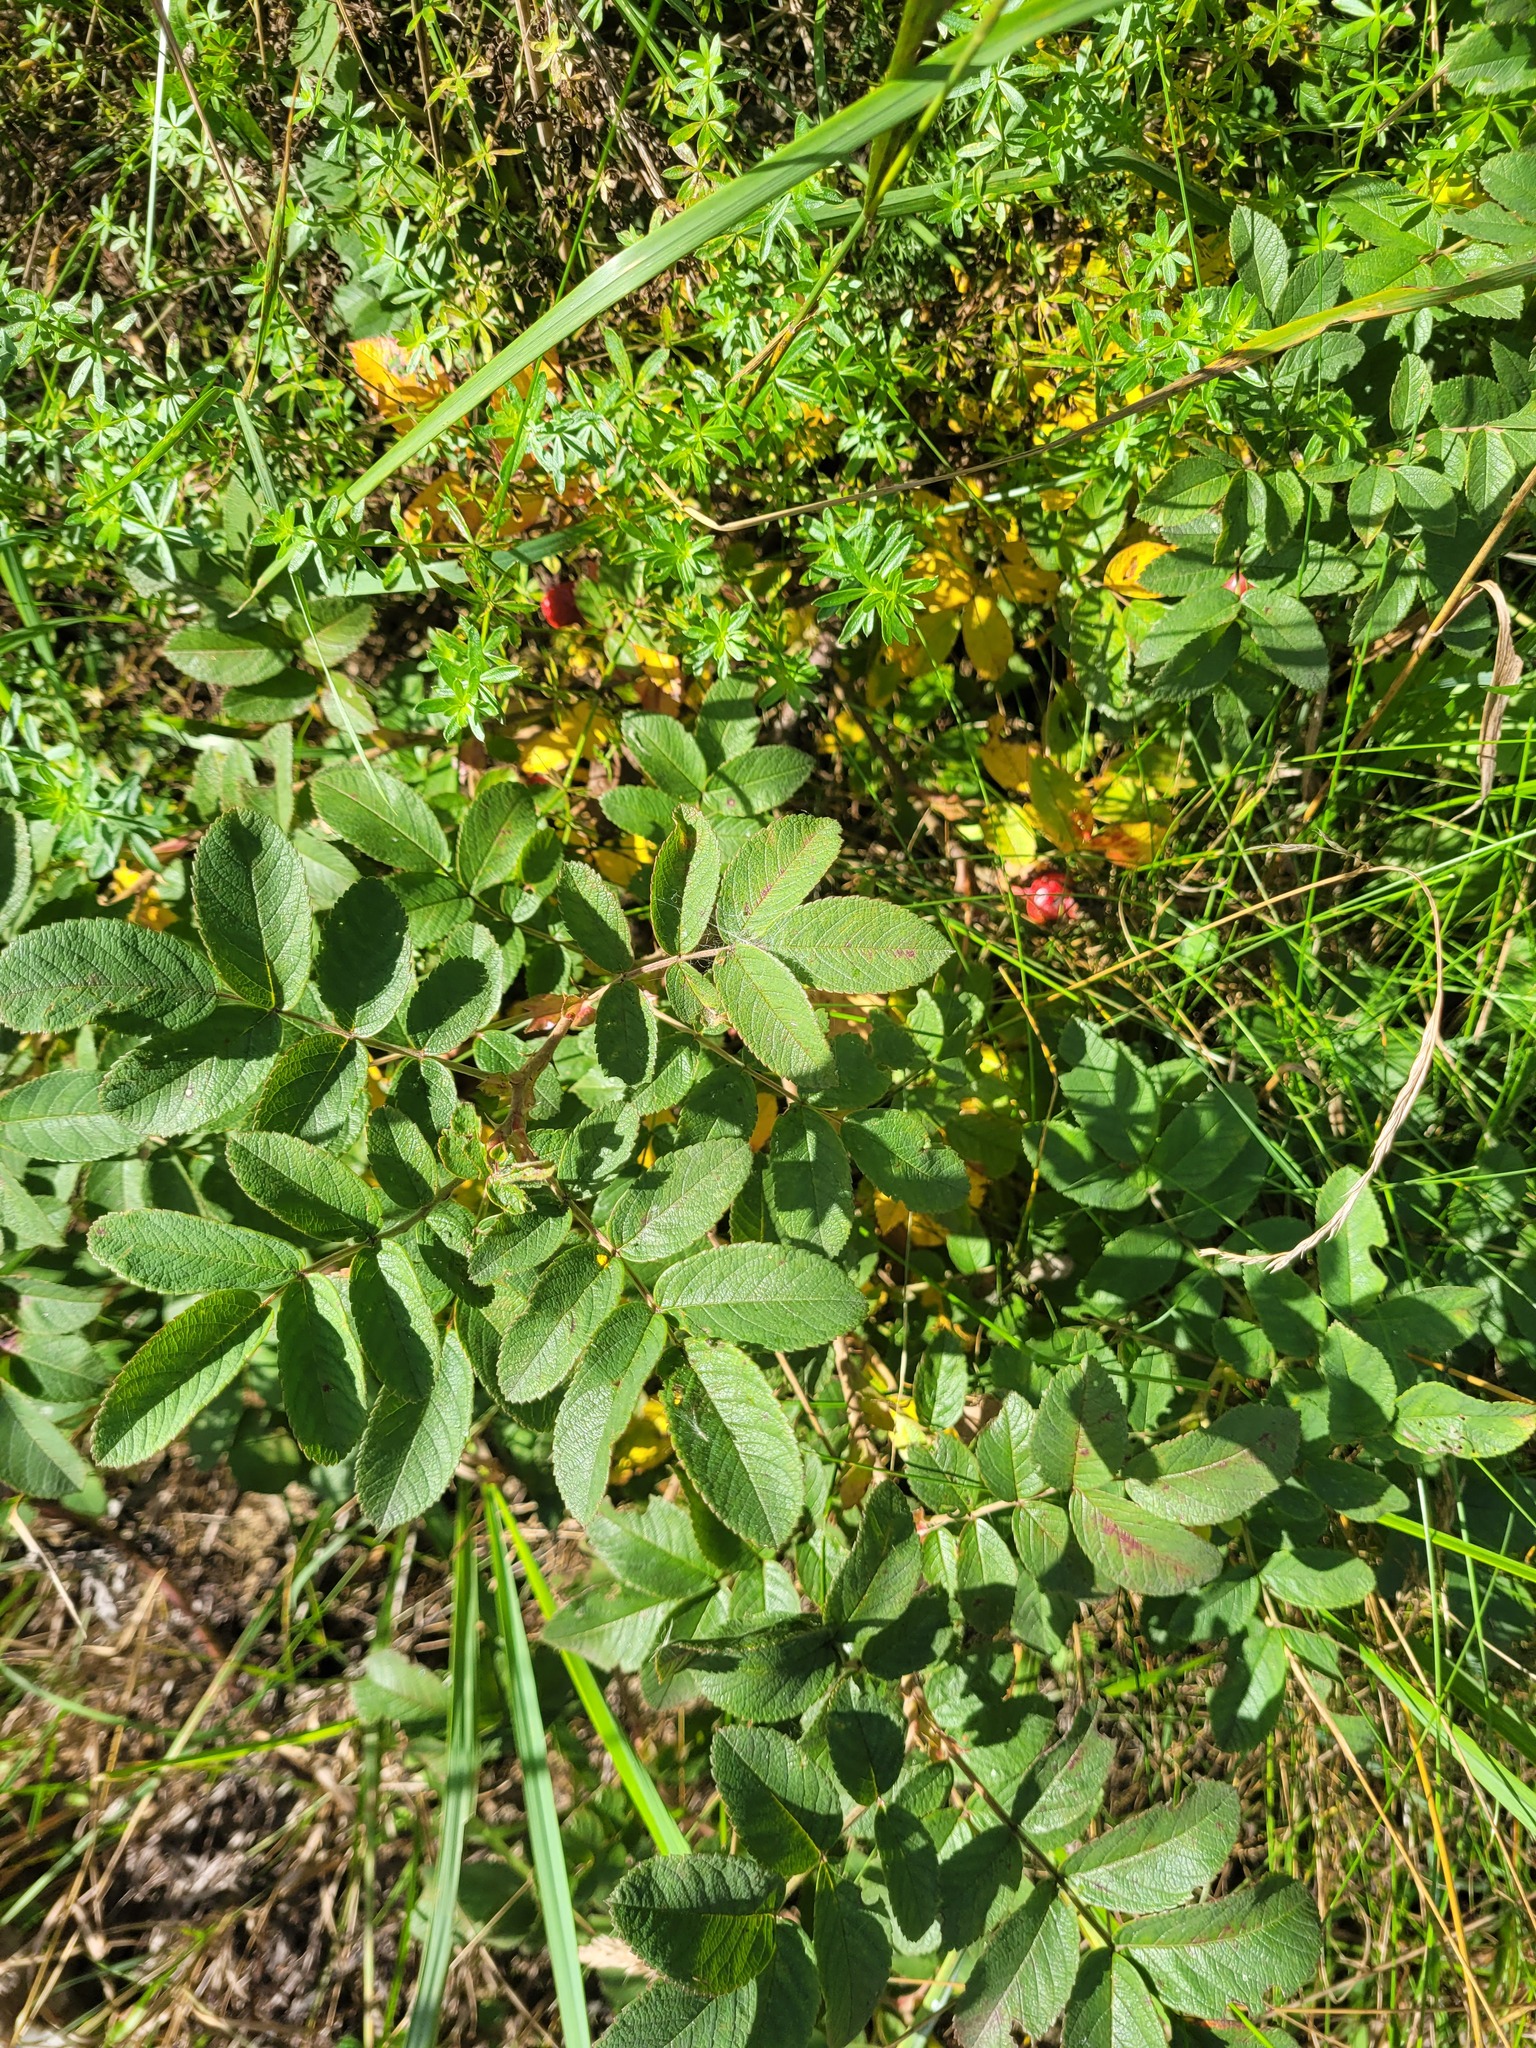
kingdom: Plantae
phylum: Tracheophyta
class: Magnoliopsida
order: Rosales
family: Rosaceae
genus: Rosa
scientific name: Rosa majorugosa
